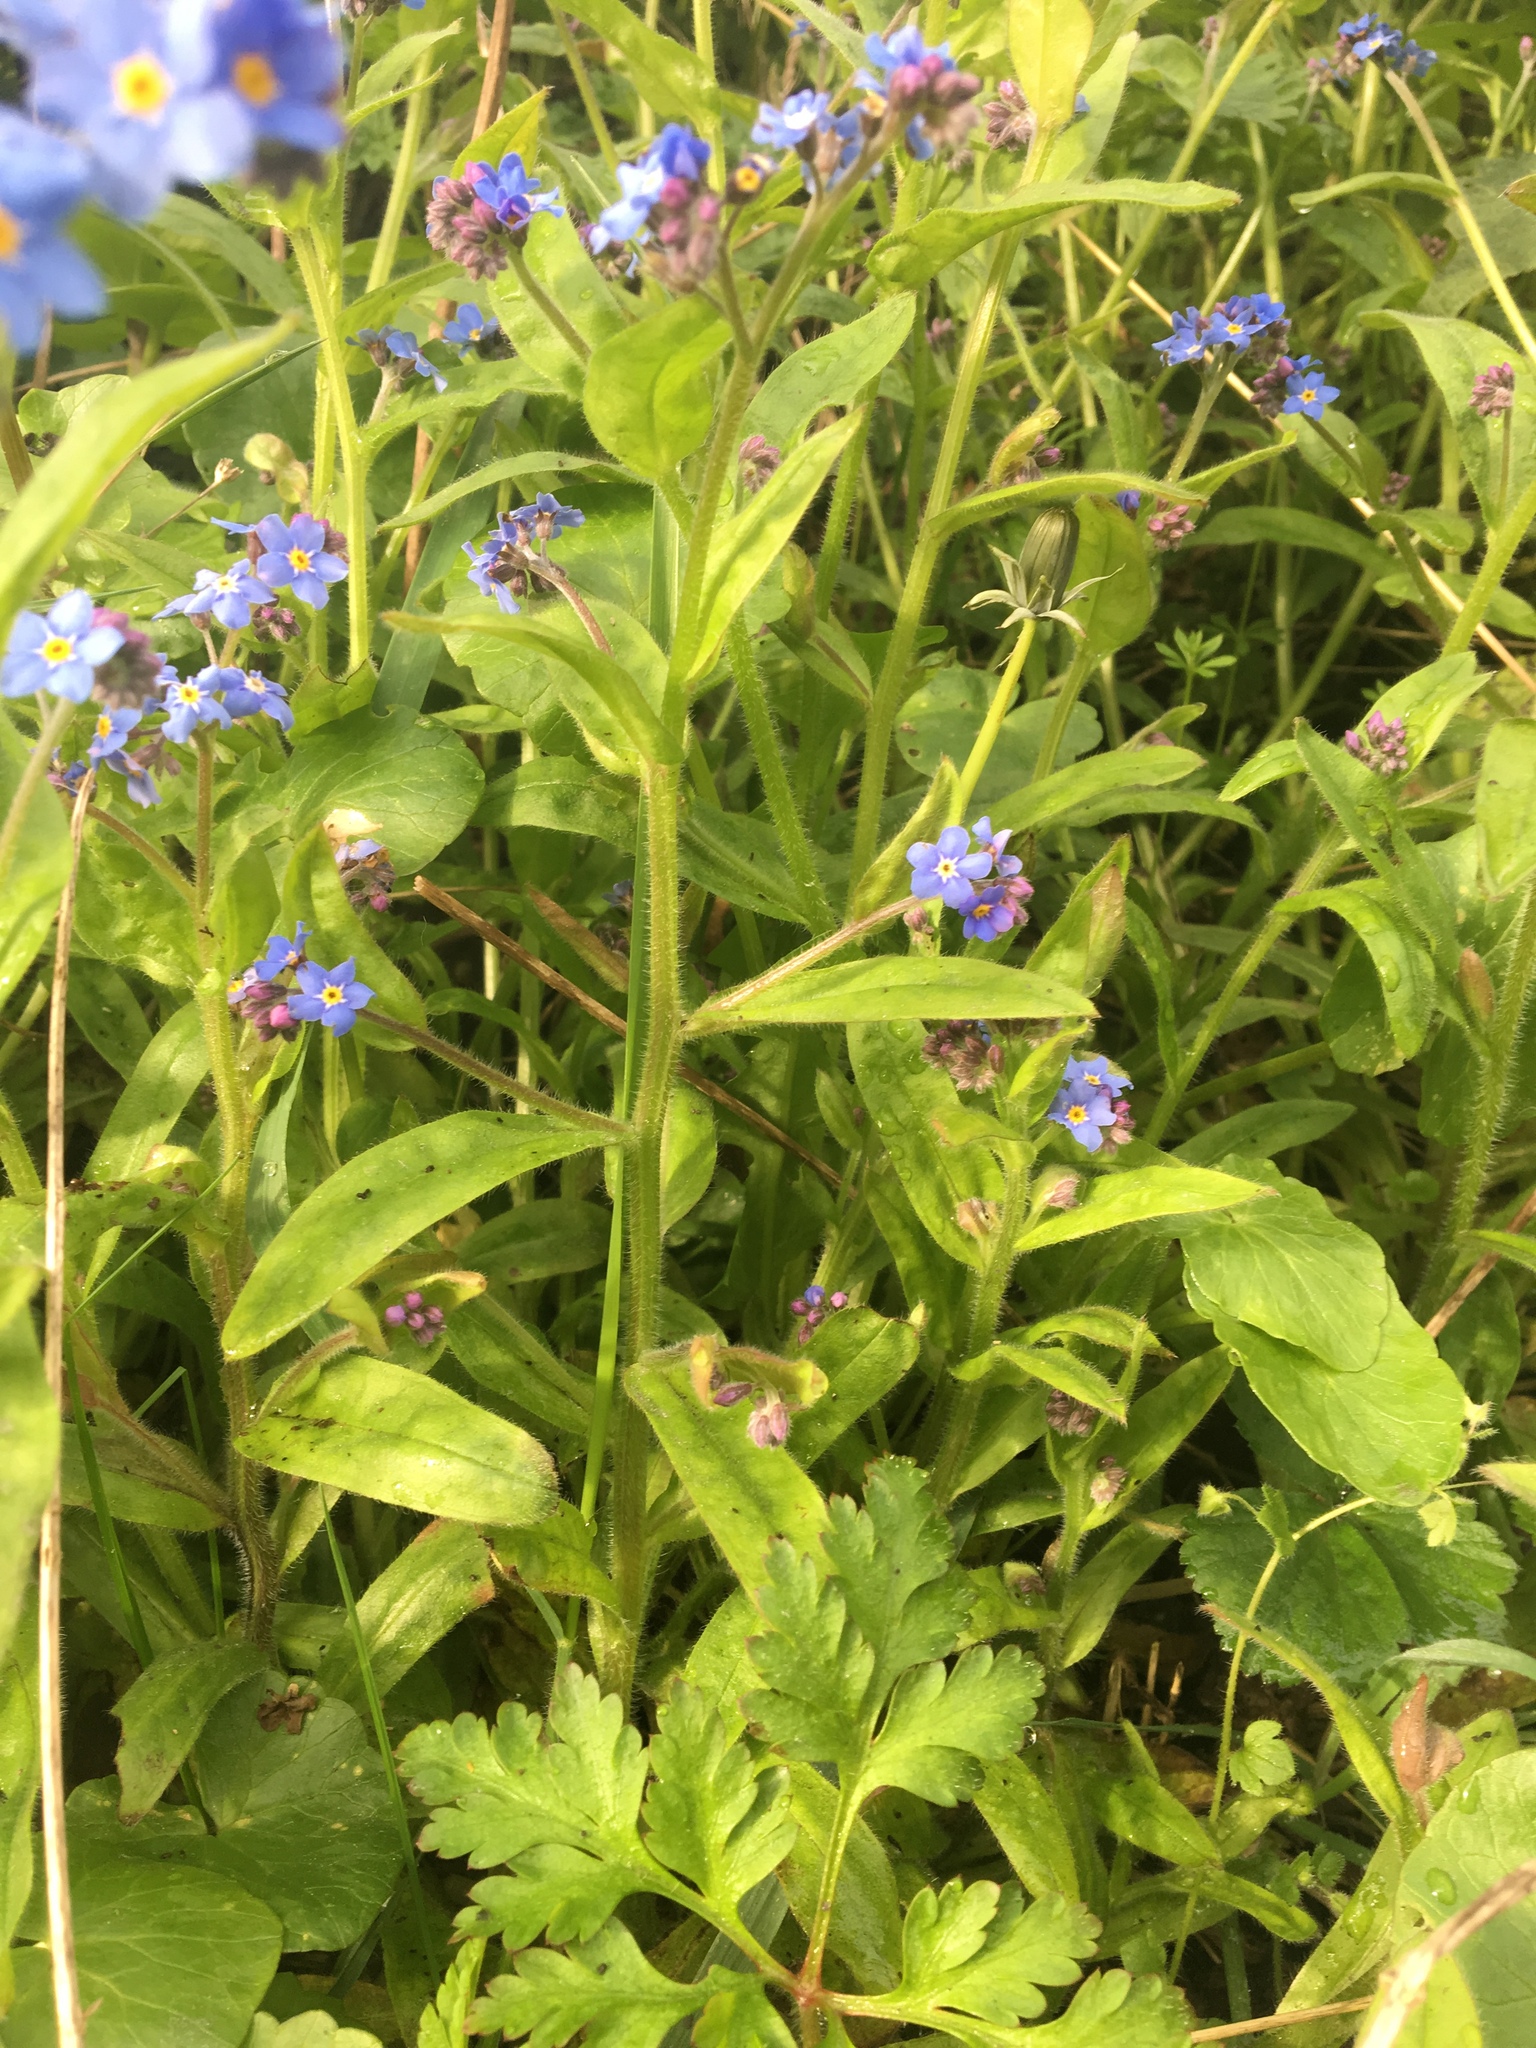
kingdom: Plantae
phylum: Tracheophyta
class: Magnoliopsida
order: Boraginales
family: Boraginaceae
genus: Myosotis
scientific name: Myosotis sylvatica
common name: Wood forget-me-not
